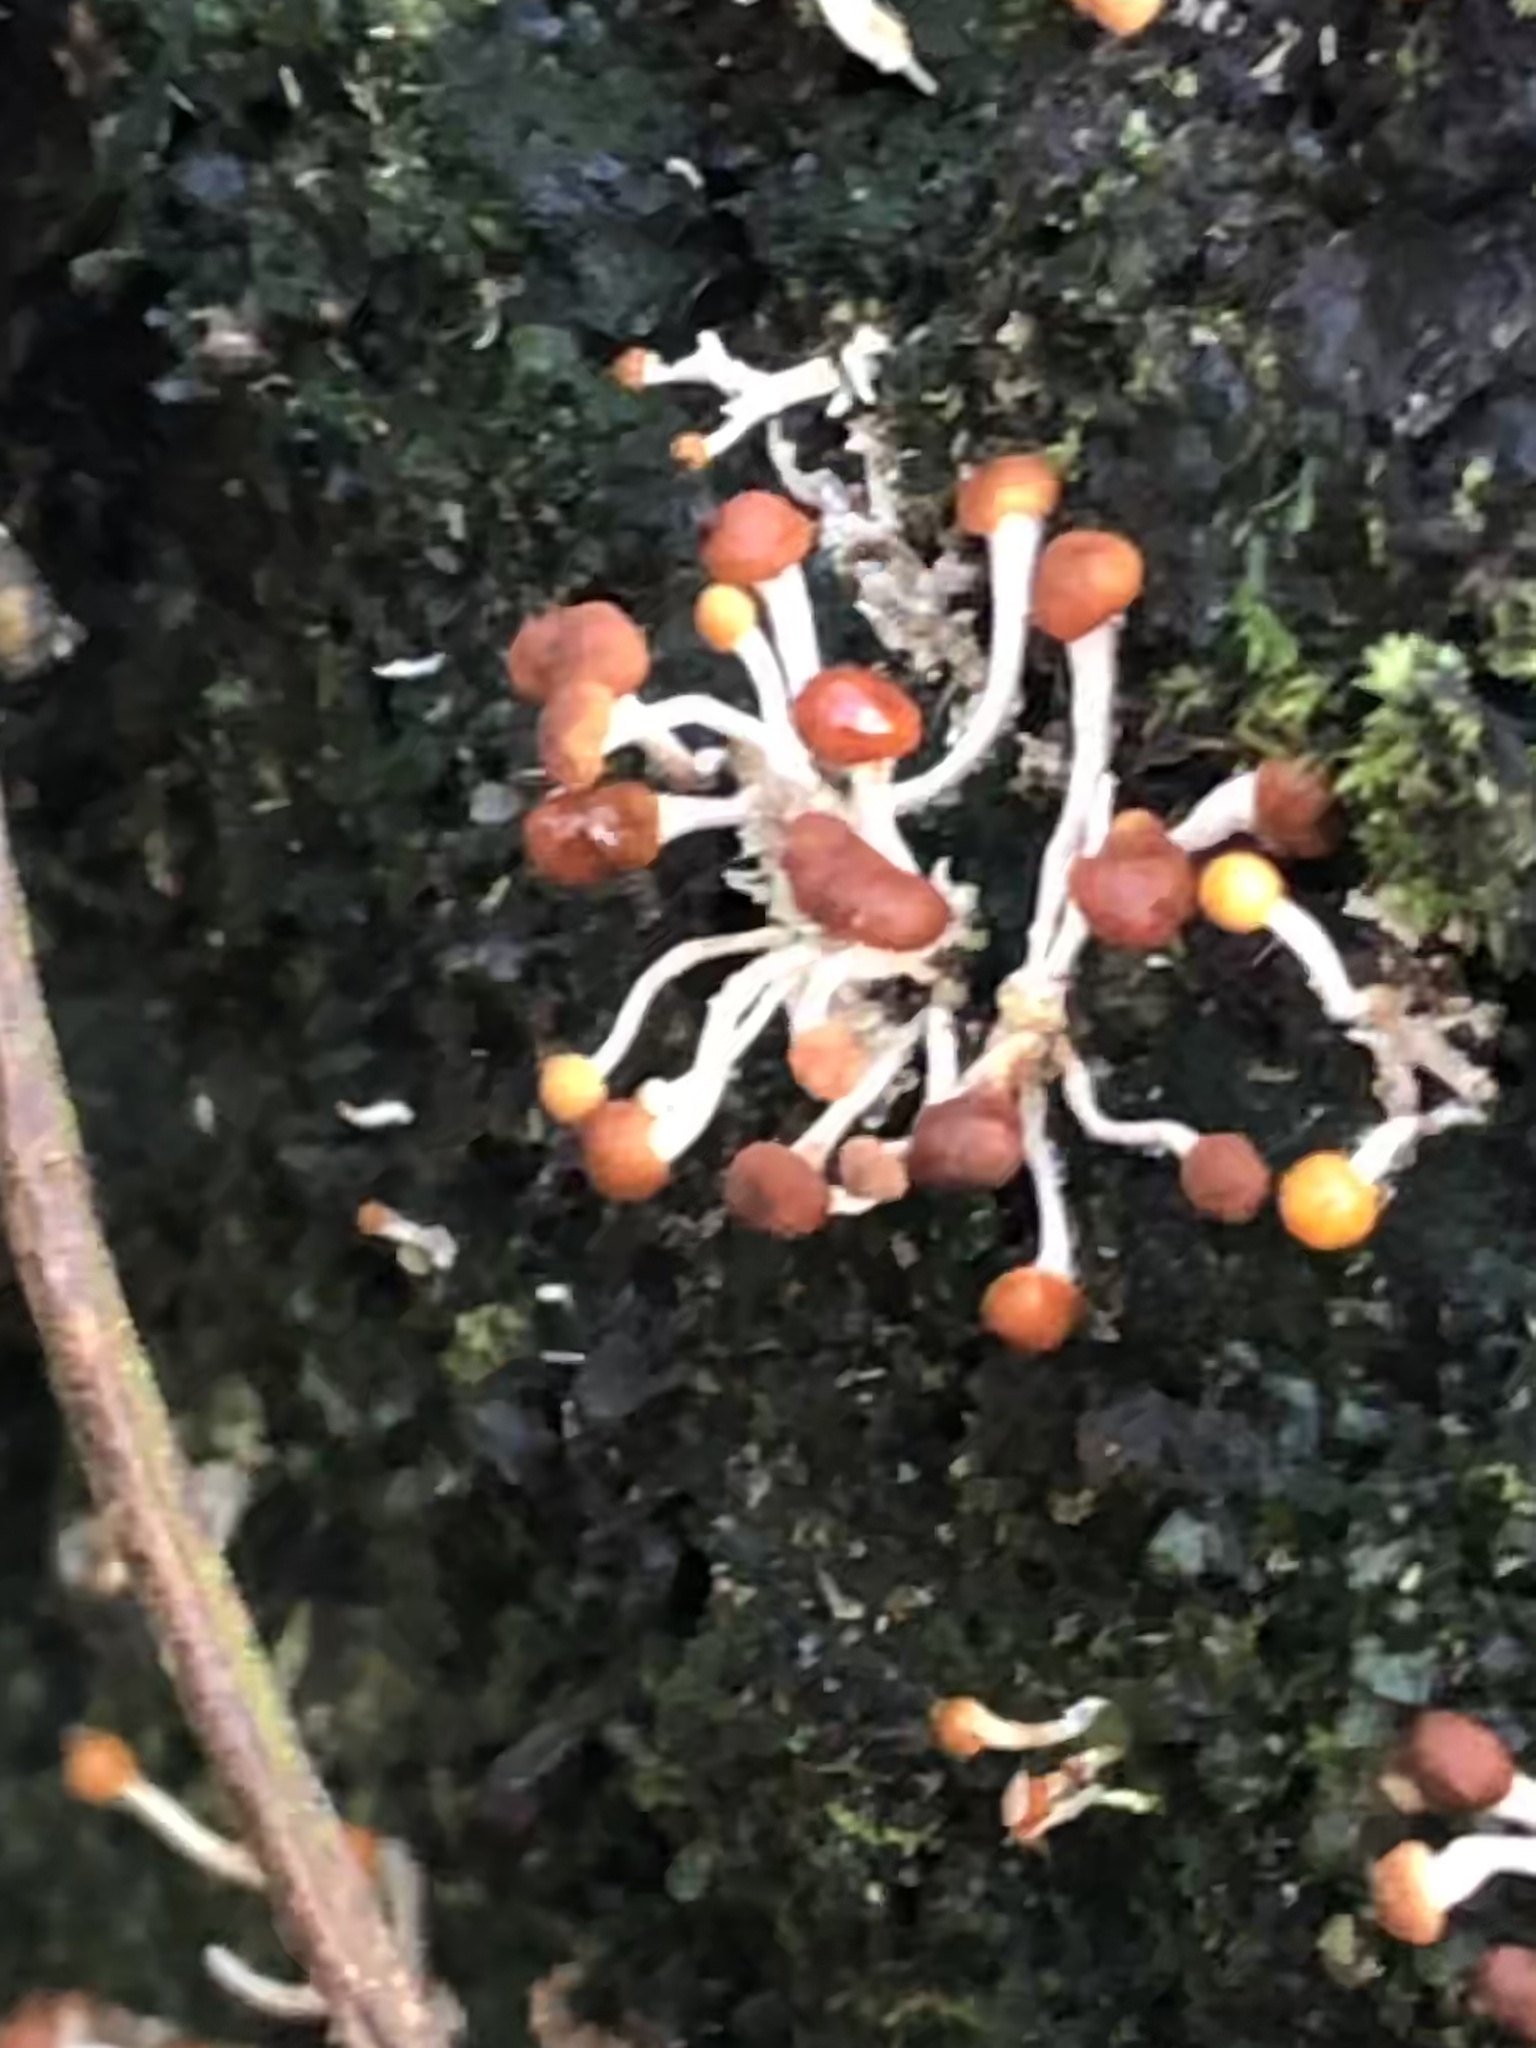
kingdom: Fungi
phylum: Ascomycota
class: Sordariomycetes
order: Hypocreales
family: Nectriaceae
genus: Calostilbe
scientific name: Calostilbe striispora
